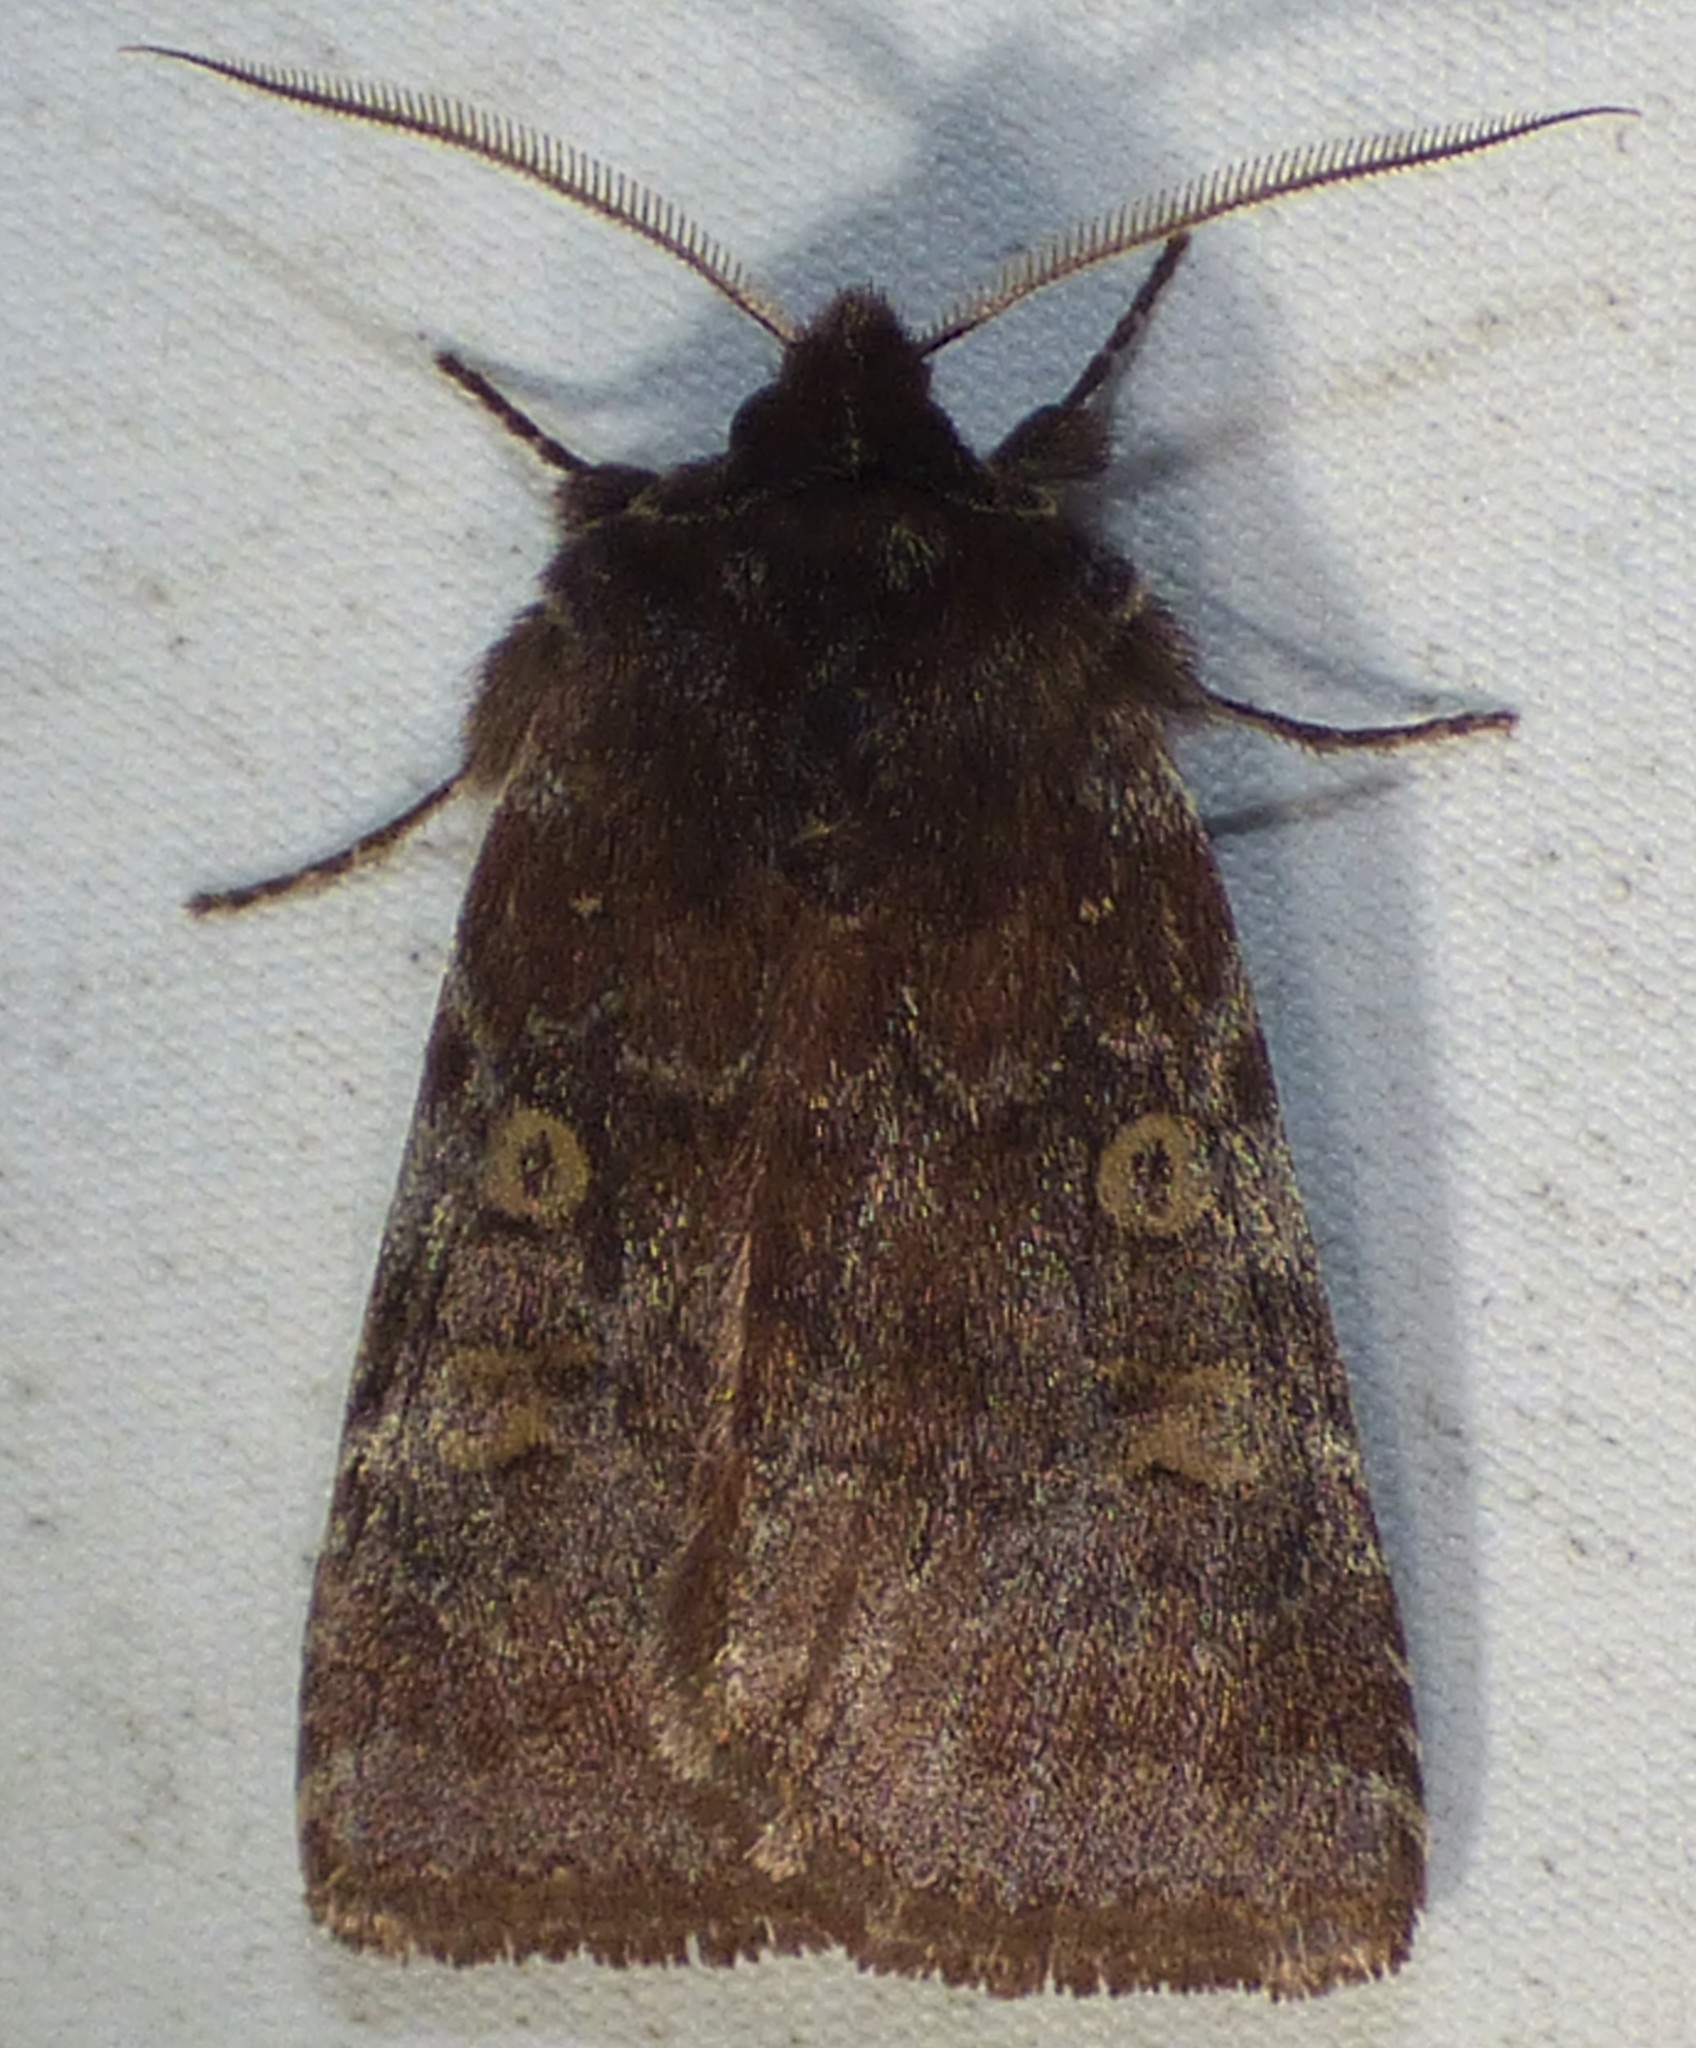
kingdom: Animalia
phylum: Arthropoda
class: Insecta
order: Lepidoptera
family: Noctuidae
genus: Cerastis
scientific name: Cerastis tenebrifera
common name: Reddish speckled dart
